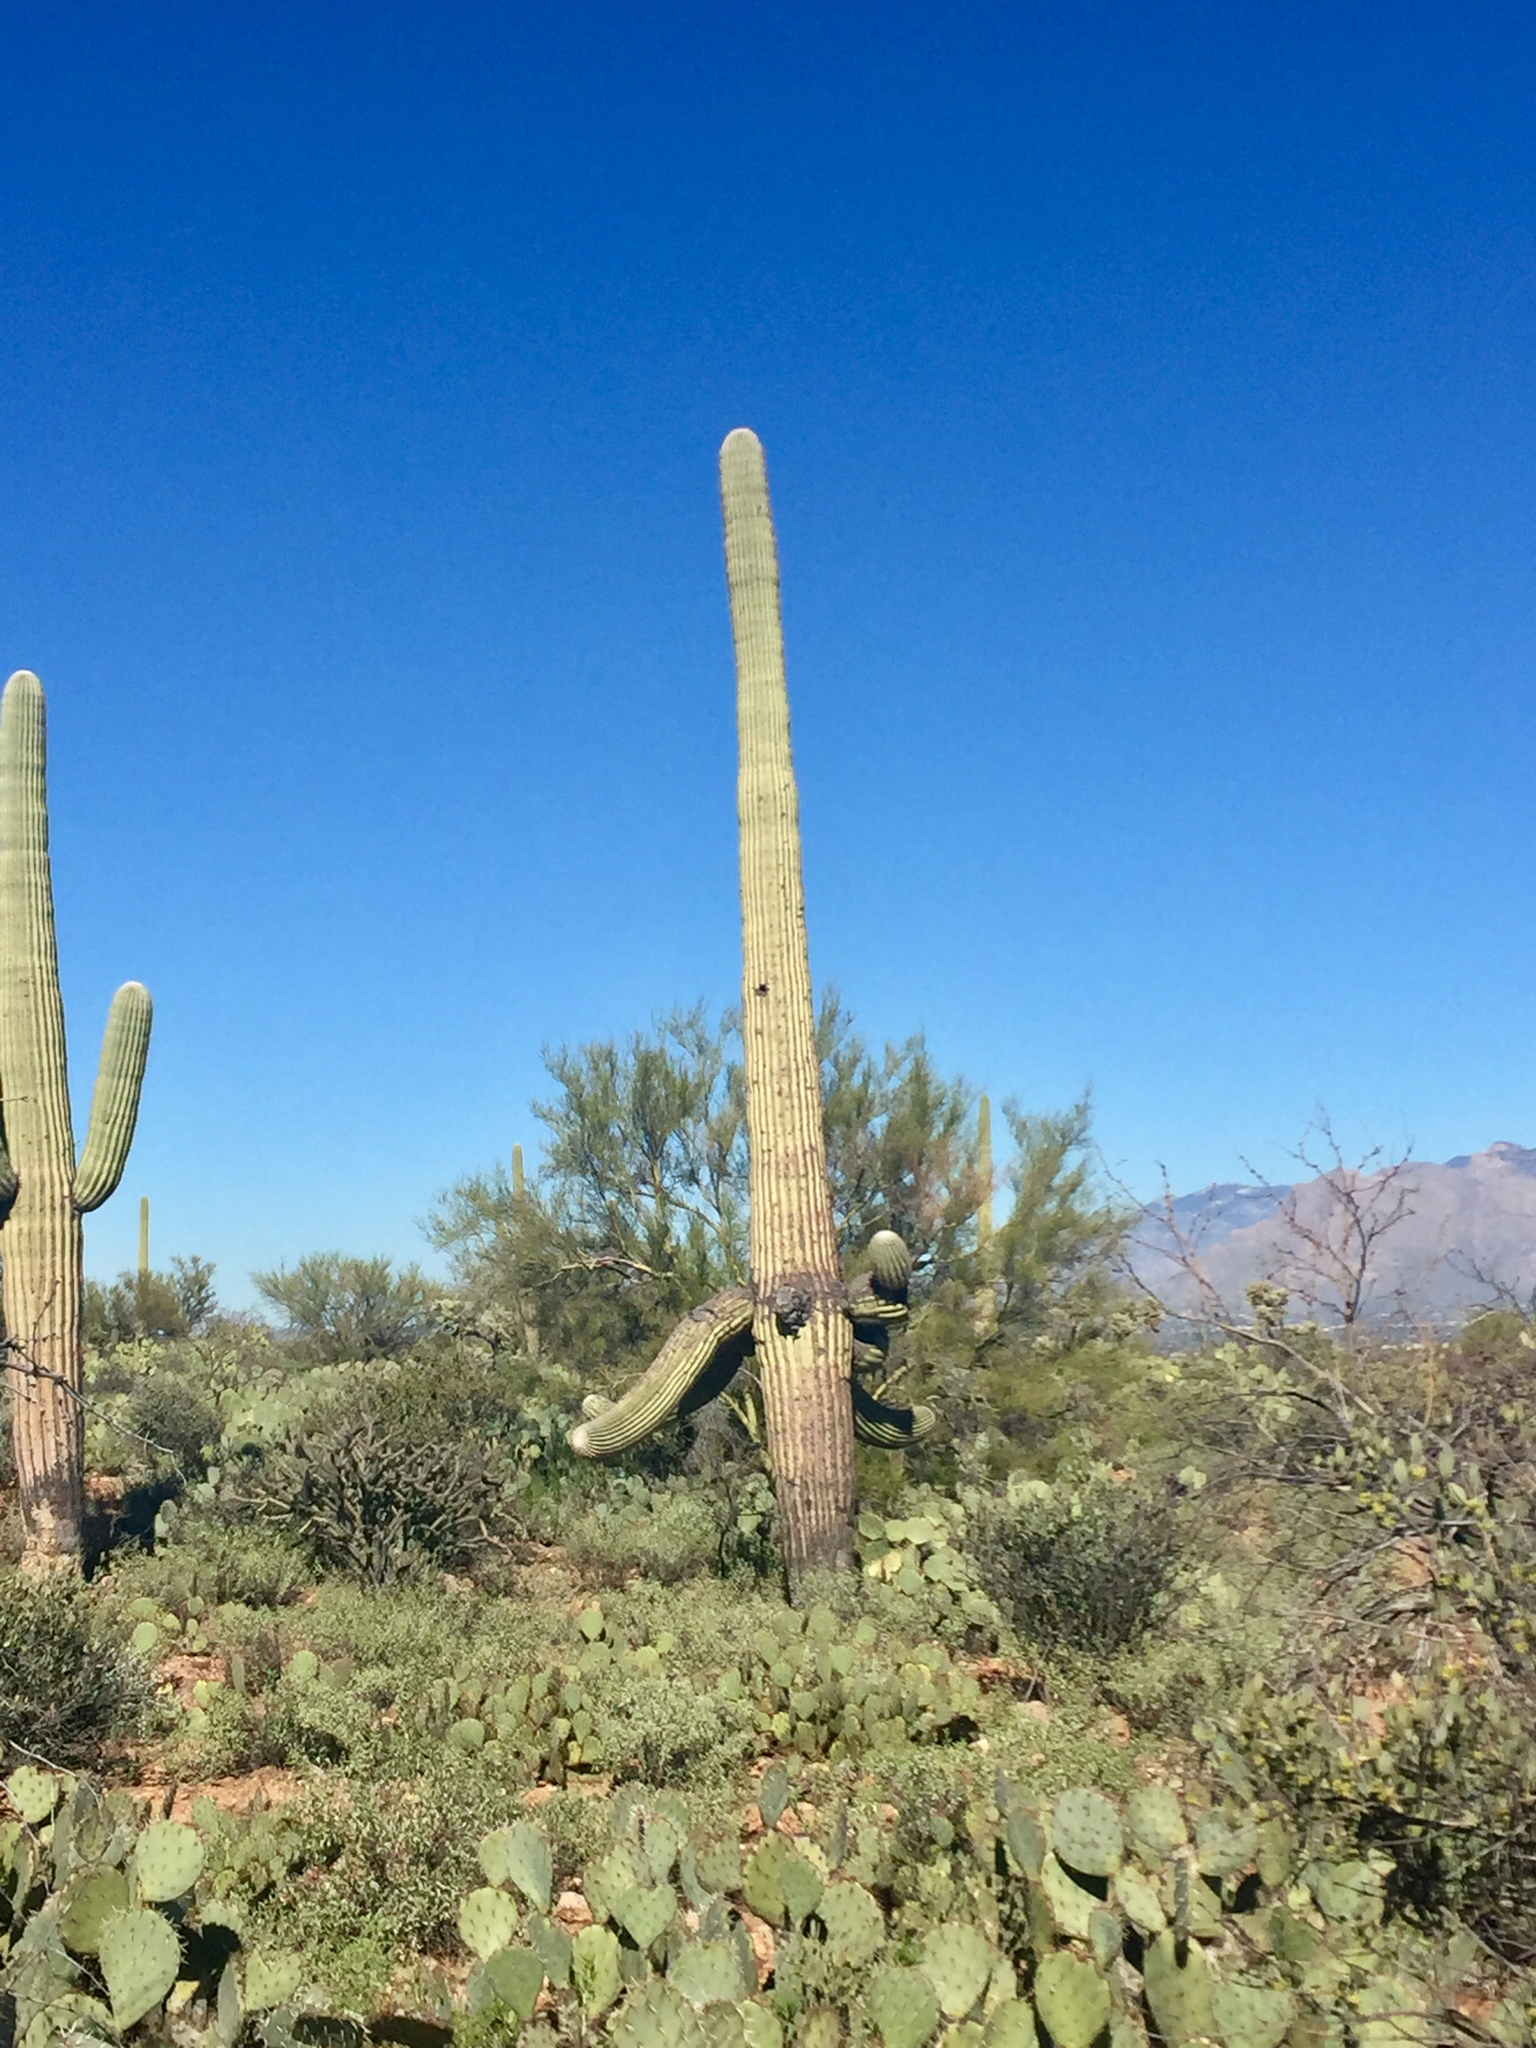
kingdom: Plantae
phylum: Tracheophyta
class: Magnoliopsida
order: Caryophyllales
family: Cactaceae
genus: Carnegiea
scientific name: Carnegiea gigantea
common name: Saguaro
